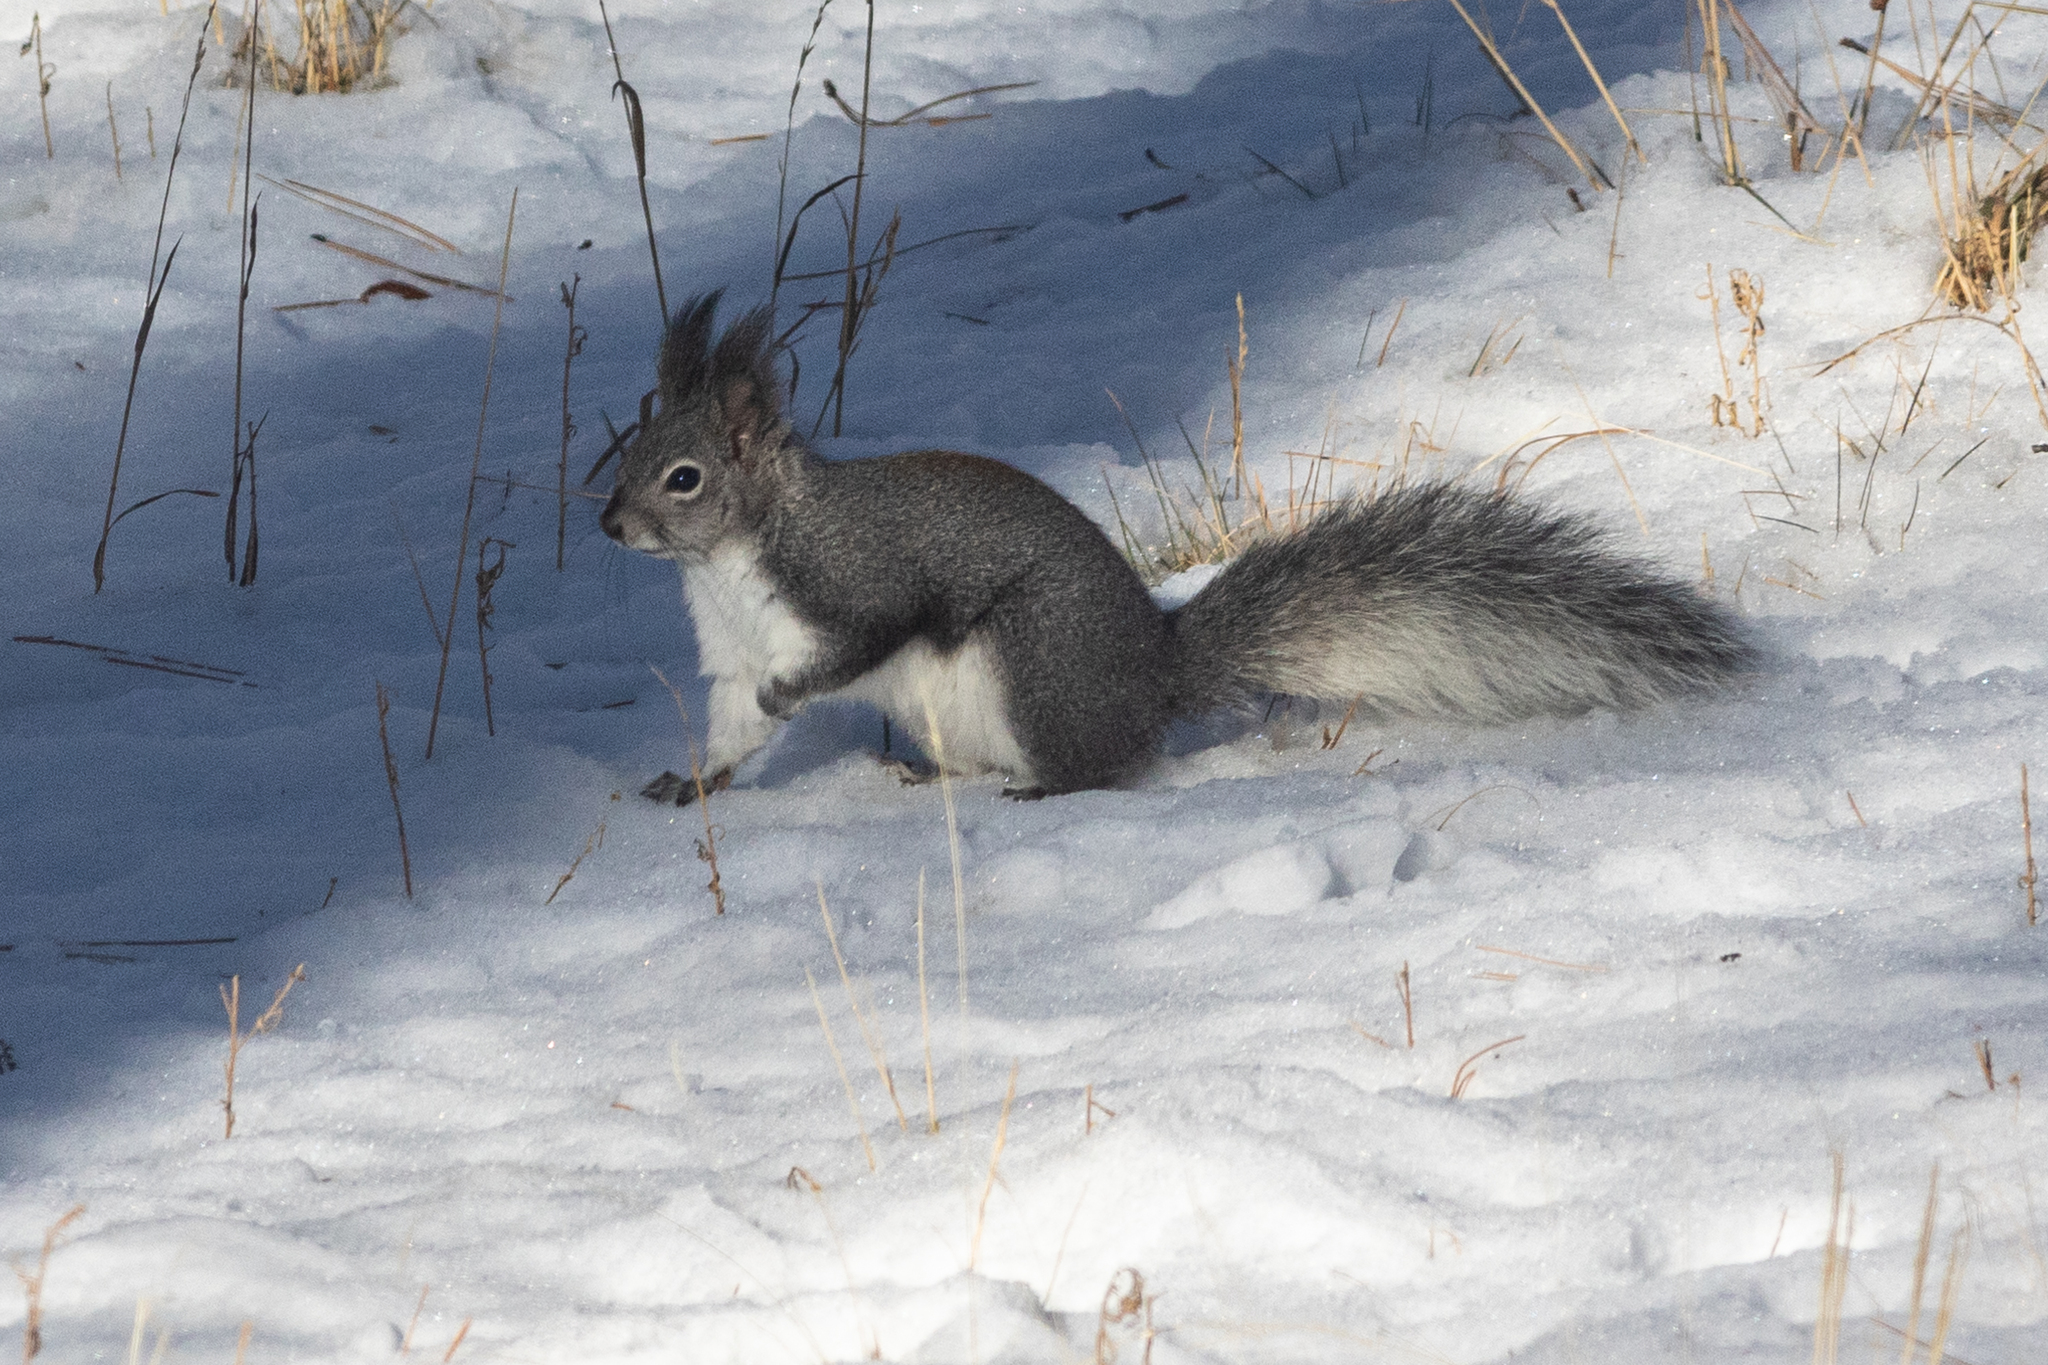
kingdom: Animalia
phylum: Chordata
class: Mammalia
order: Rodentia
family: Sciuridae
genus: Sciurus
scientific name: Sciurus aberti
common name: Abert's squirrel
